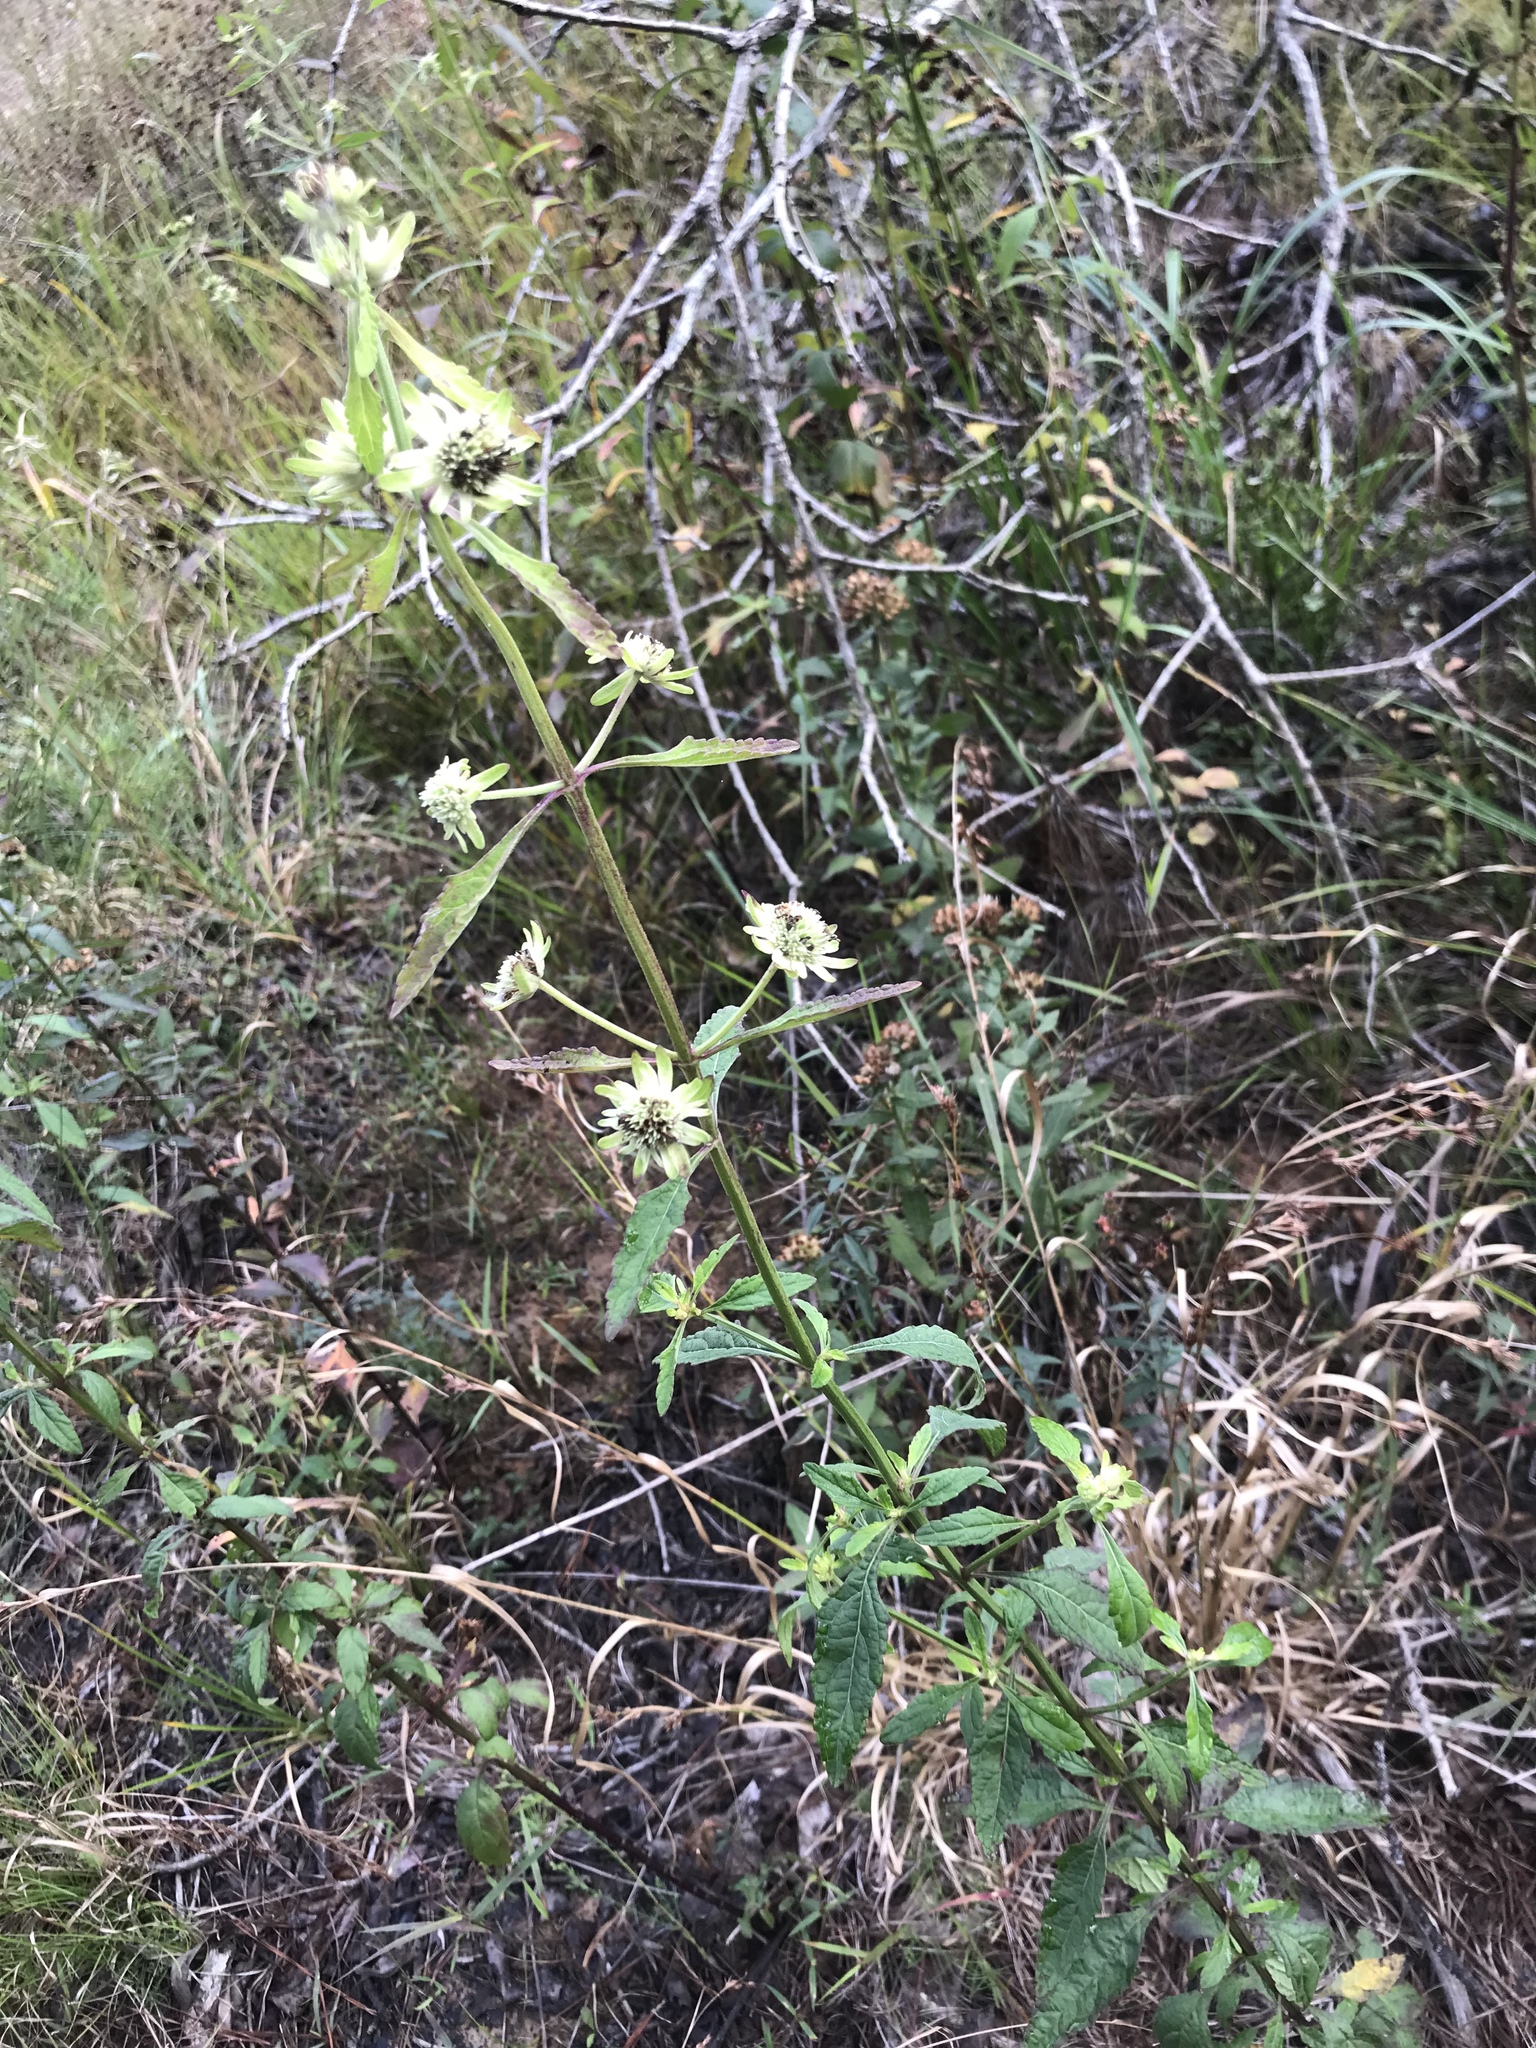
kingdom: Plantae
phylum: Tracheophyta
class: Magnoliopsida
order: Lamiales
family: Lamiaceae
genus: Hyptis
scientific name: Hyptis alata
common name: Cluster bush-mint
